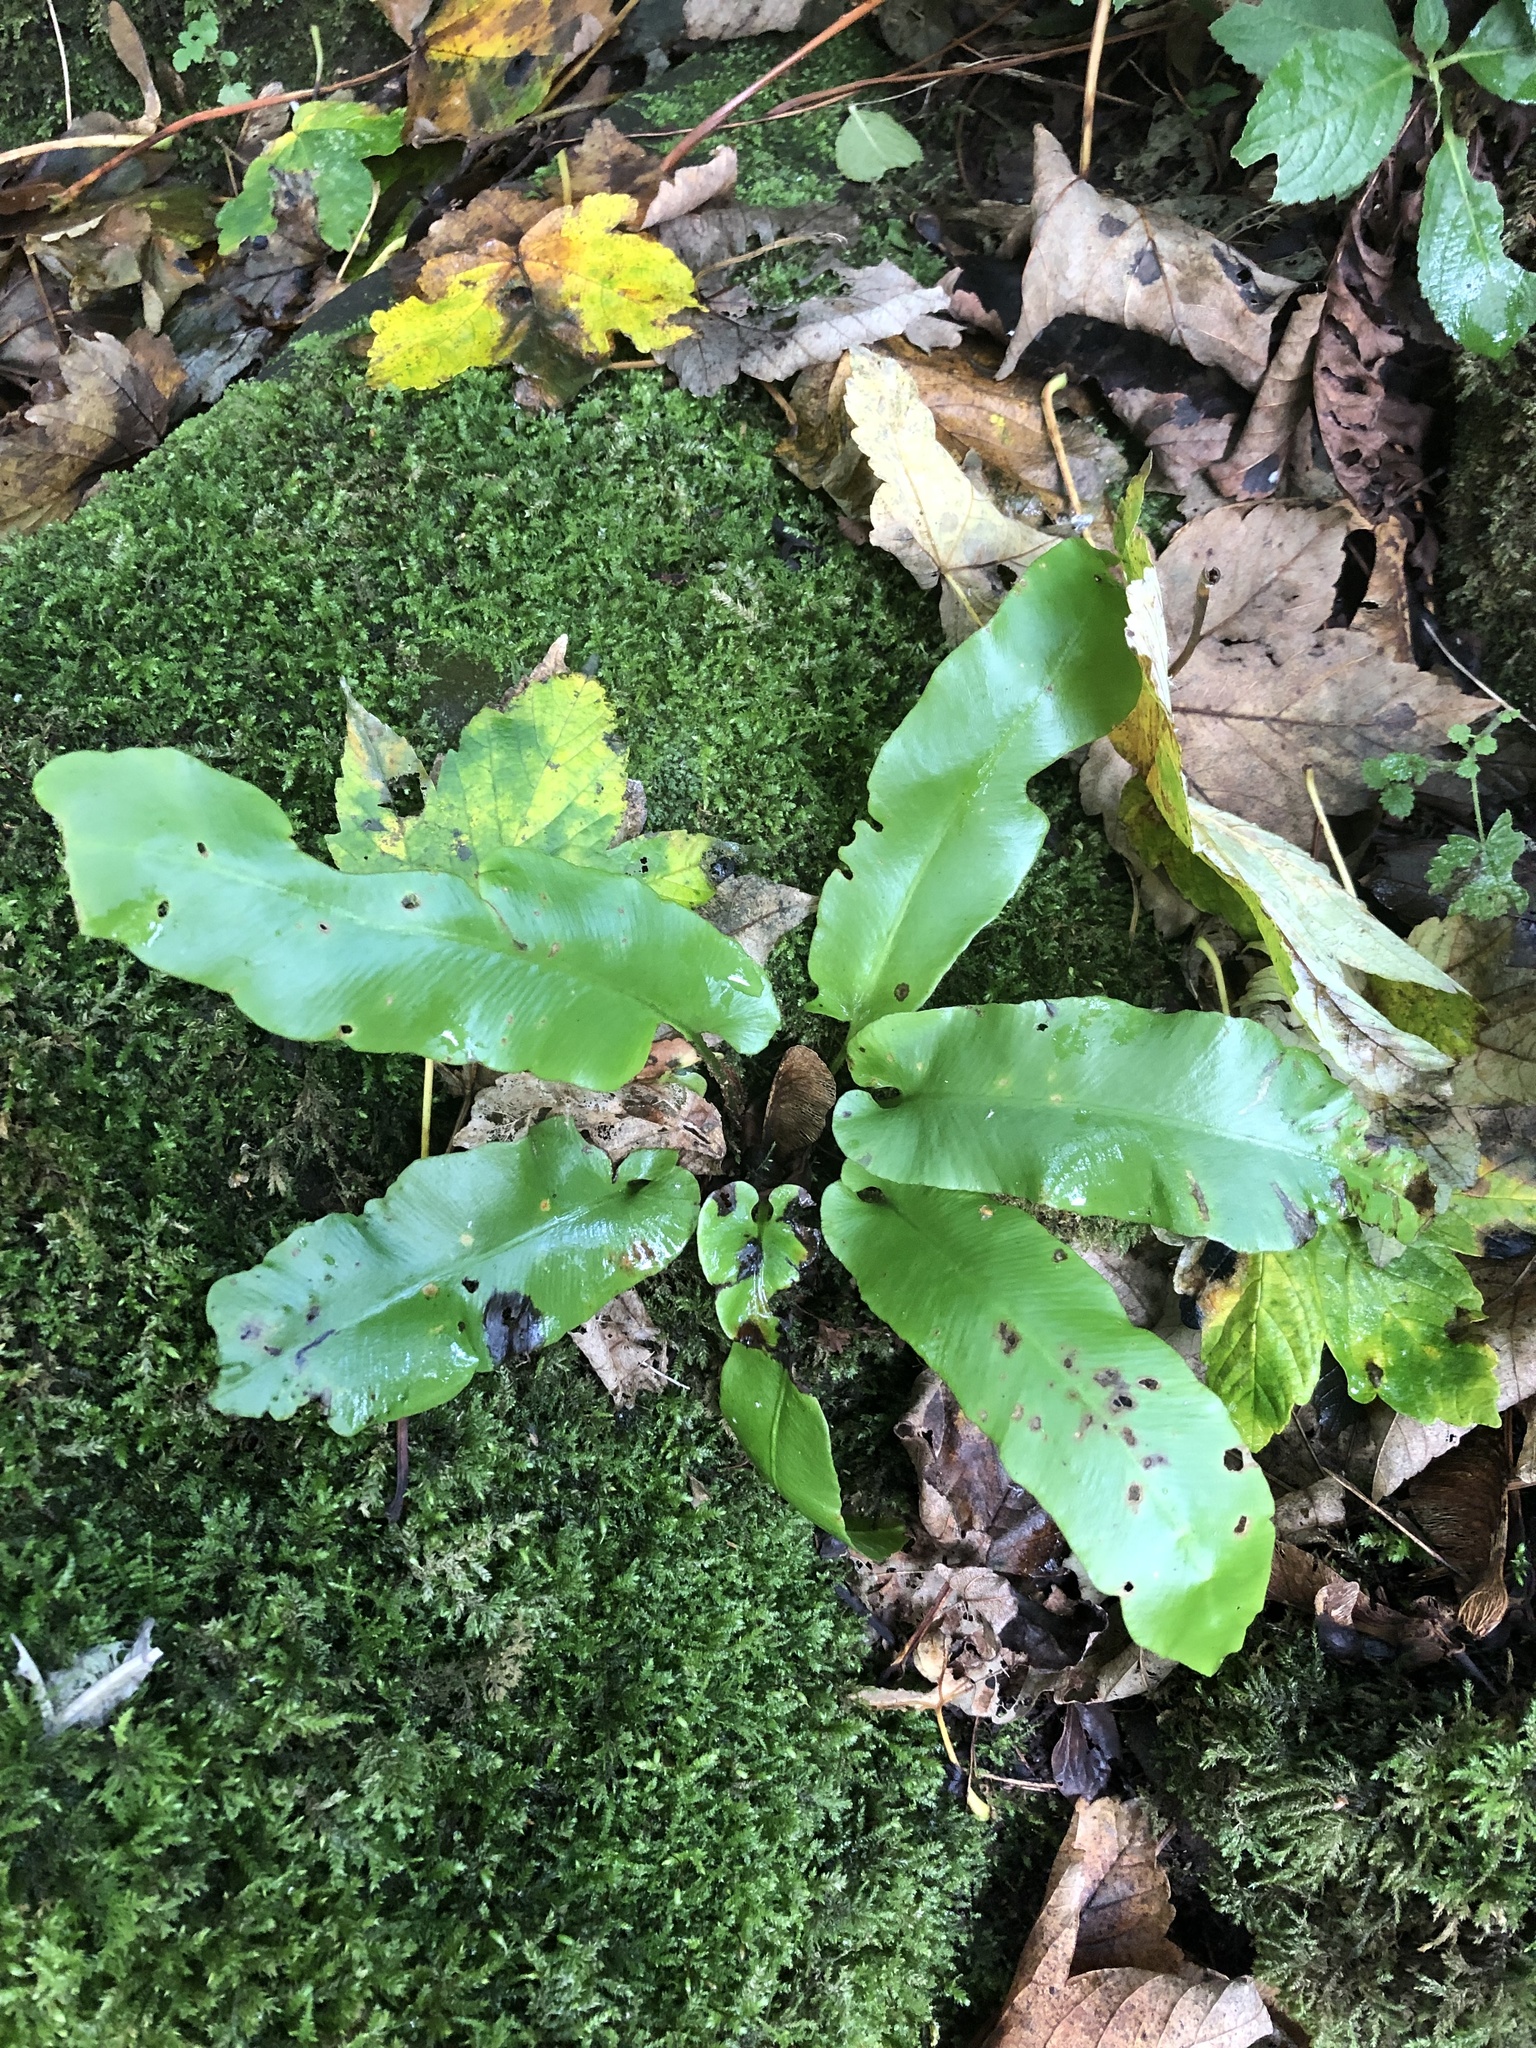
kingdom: Plantae
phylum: Tracheophyta
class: Polypodiopsida
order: Polypodiales
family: Aspleniaceae
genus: Asplenium
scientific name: Asplenium scolopendrium
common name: Hart's-tongue fern
